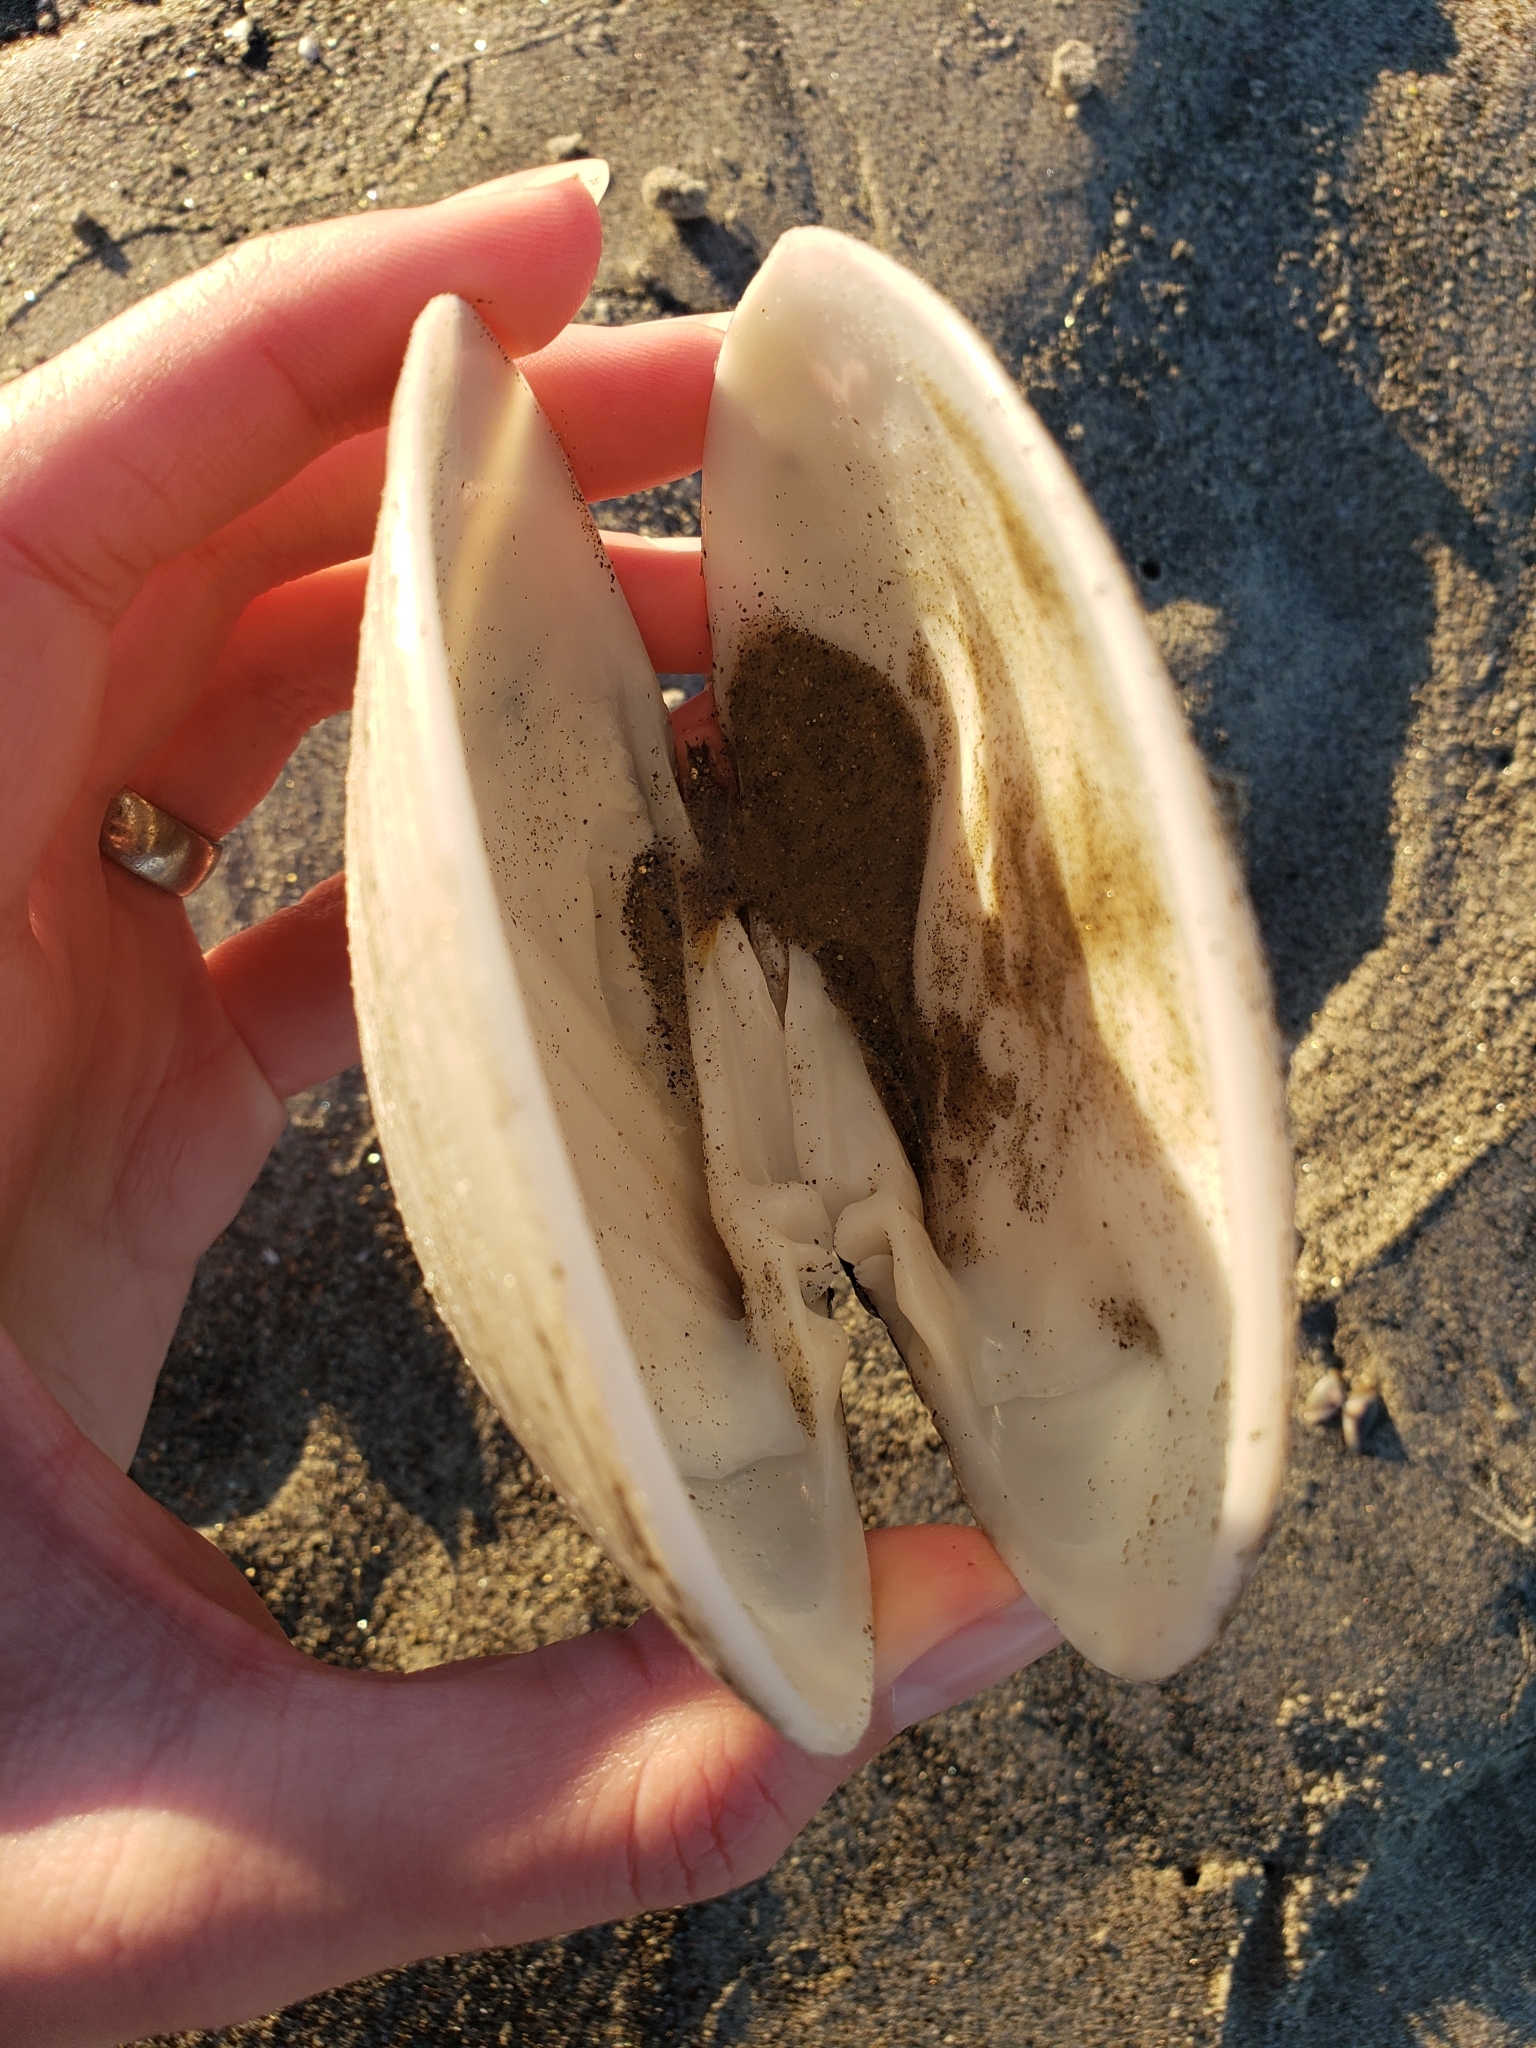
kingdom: Animalia
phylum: Mollusca
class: Bivalvia
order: Venerida
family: Veneridae
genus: Amiantis
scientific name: Amiantis callosa
